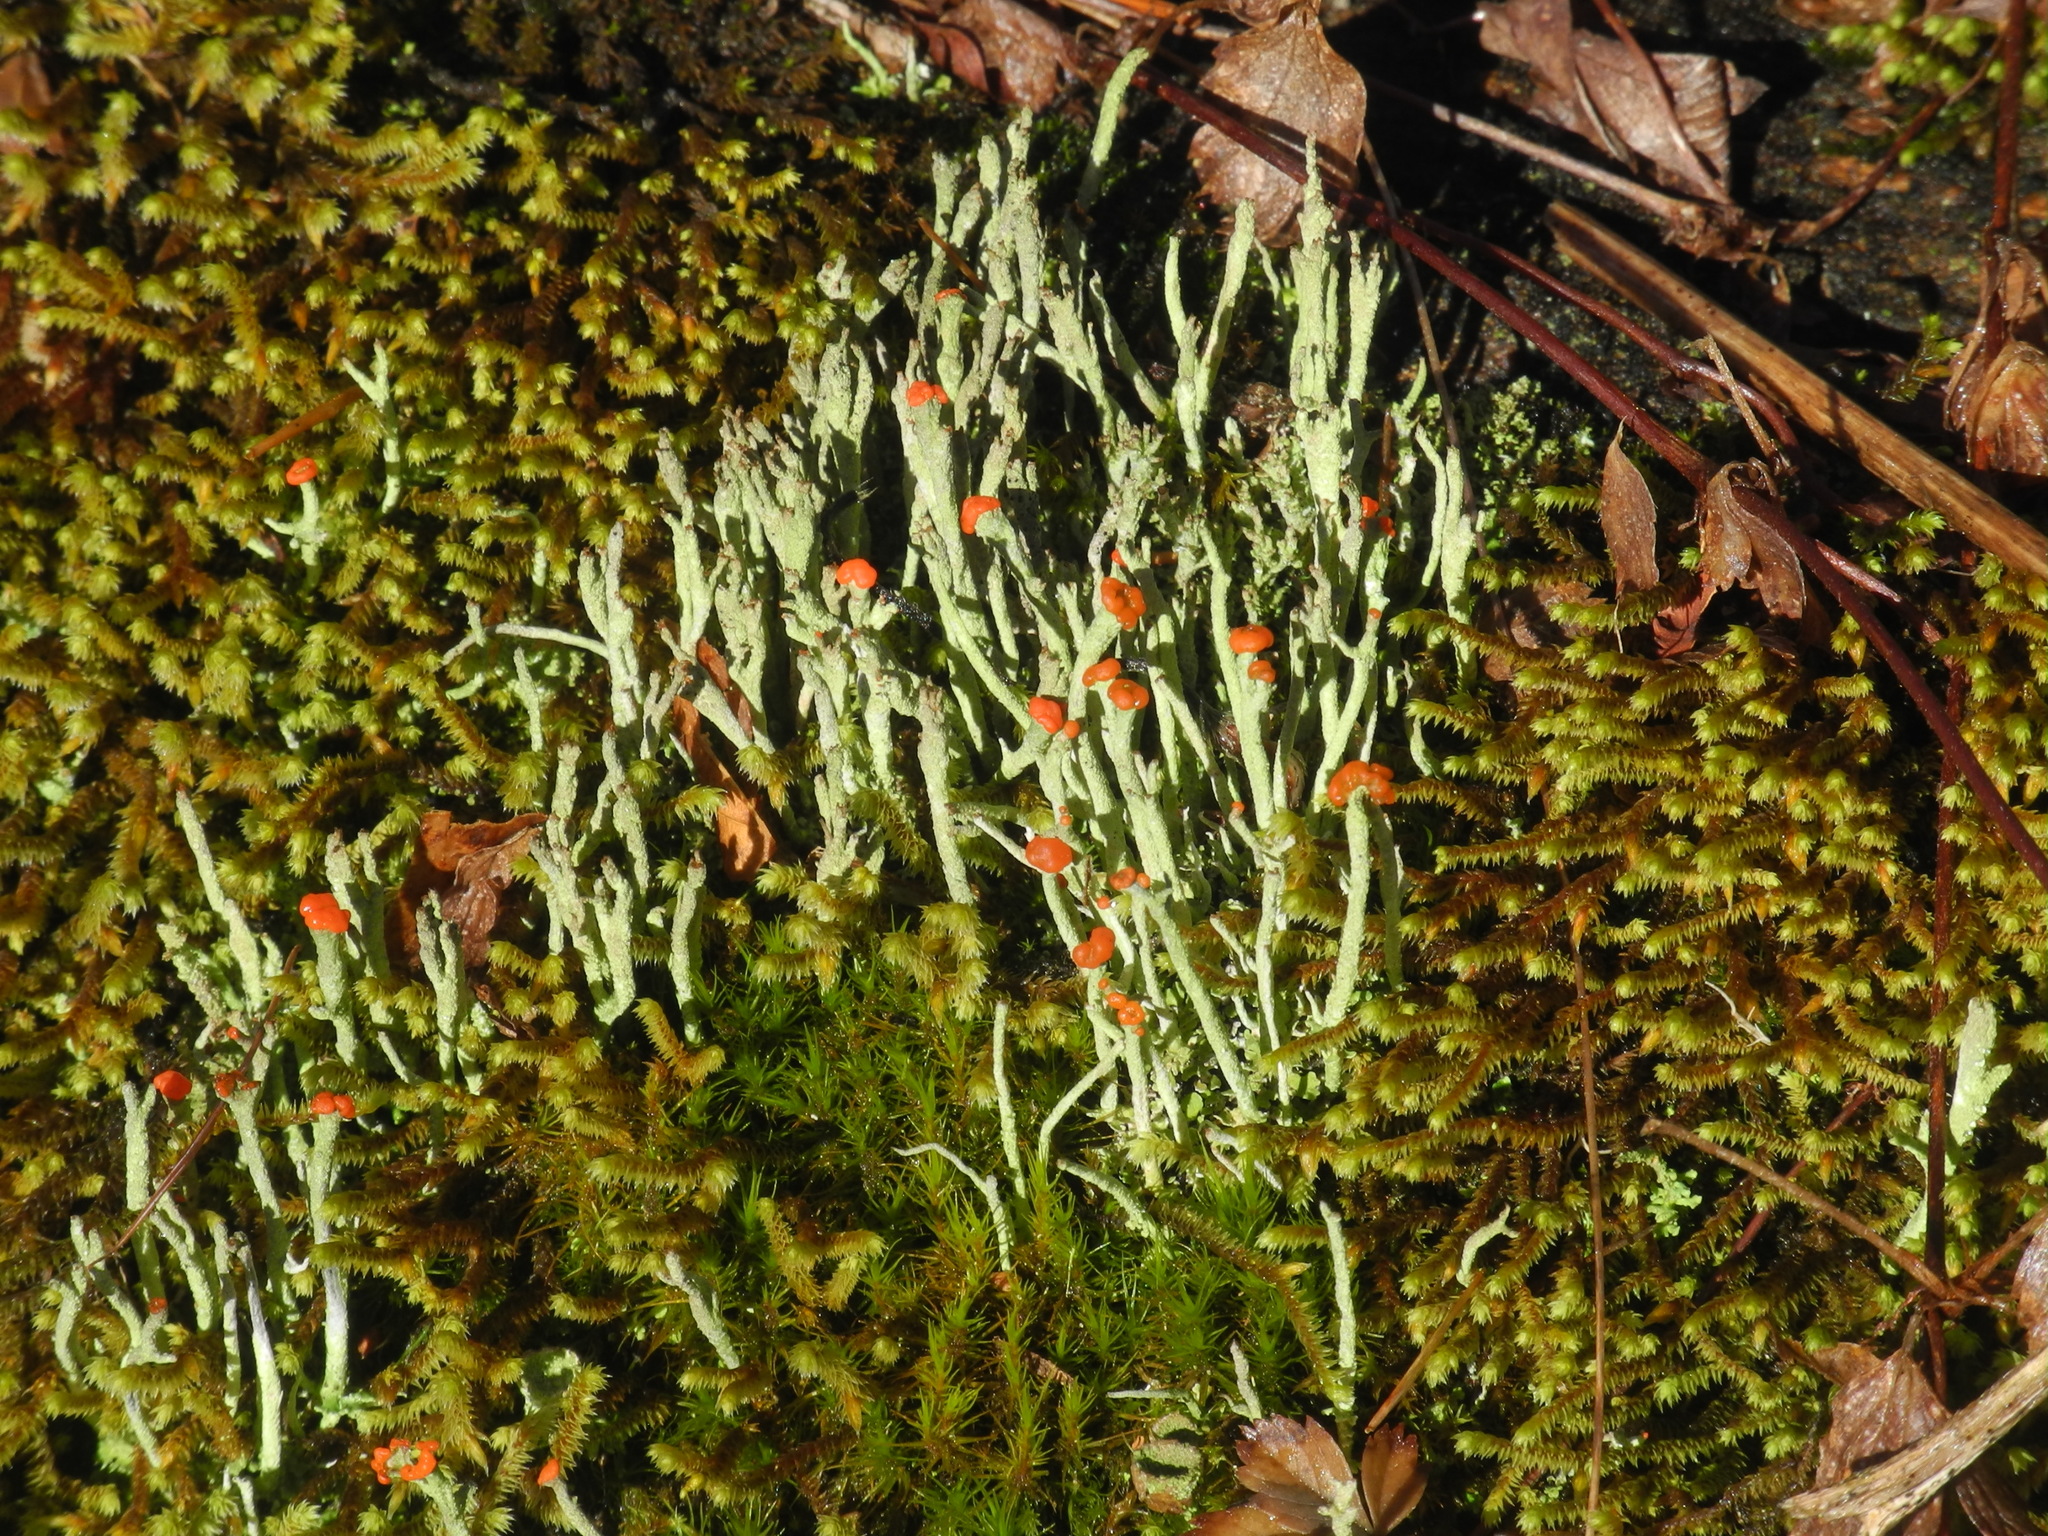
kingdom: Fungi
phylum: Ascomycota
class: Lecanoromycetes
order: Lecanorales
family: Cladoniaceae
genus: Cladonia
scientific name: Cladonia macilenta
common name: Lipstick powderhorn
